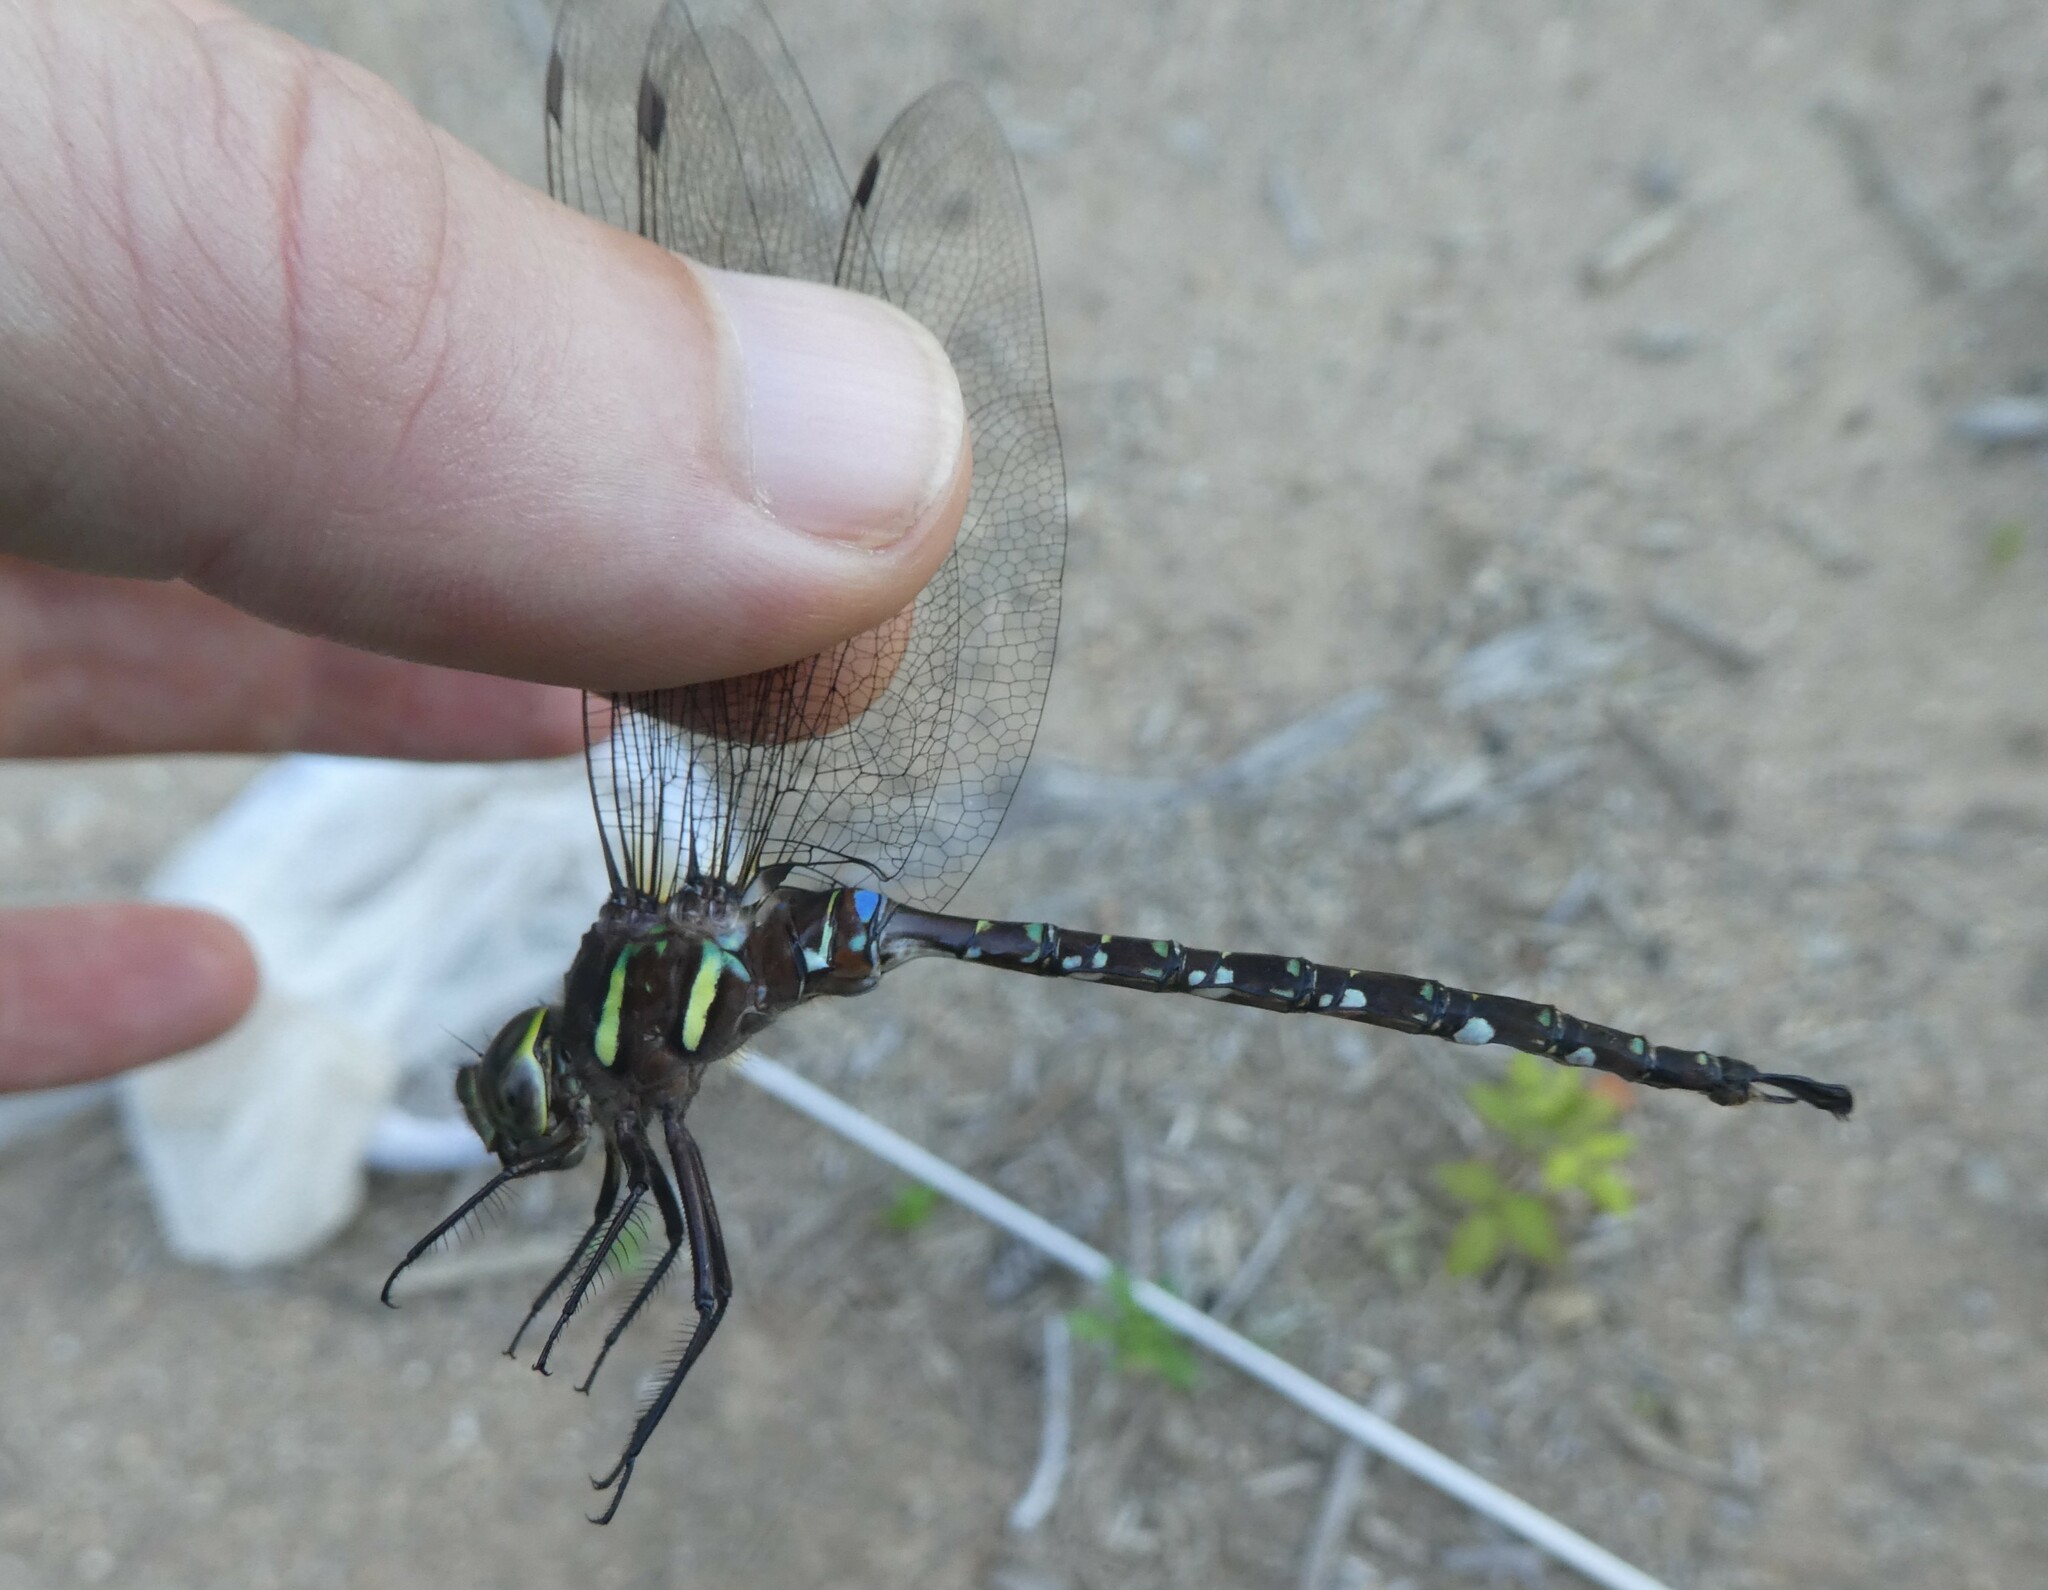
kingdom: Animalia
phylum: Arthropoda
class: Insecta
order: Odonata
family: Aeshnidae
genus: Aeshna
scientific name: Aeshna umbrosa
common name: Shadow darner
